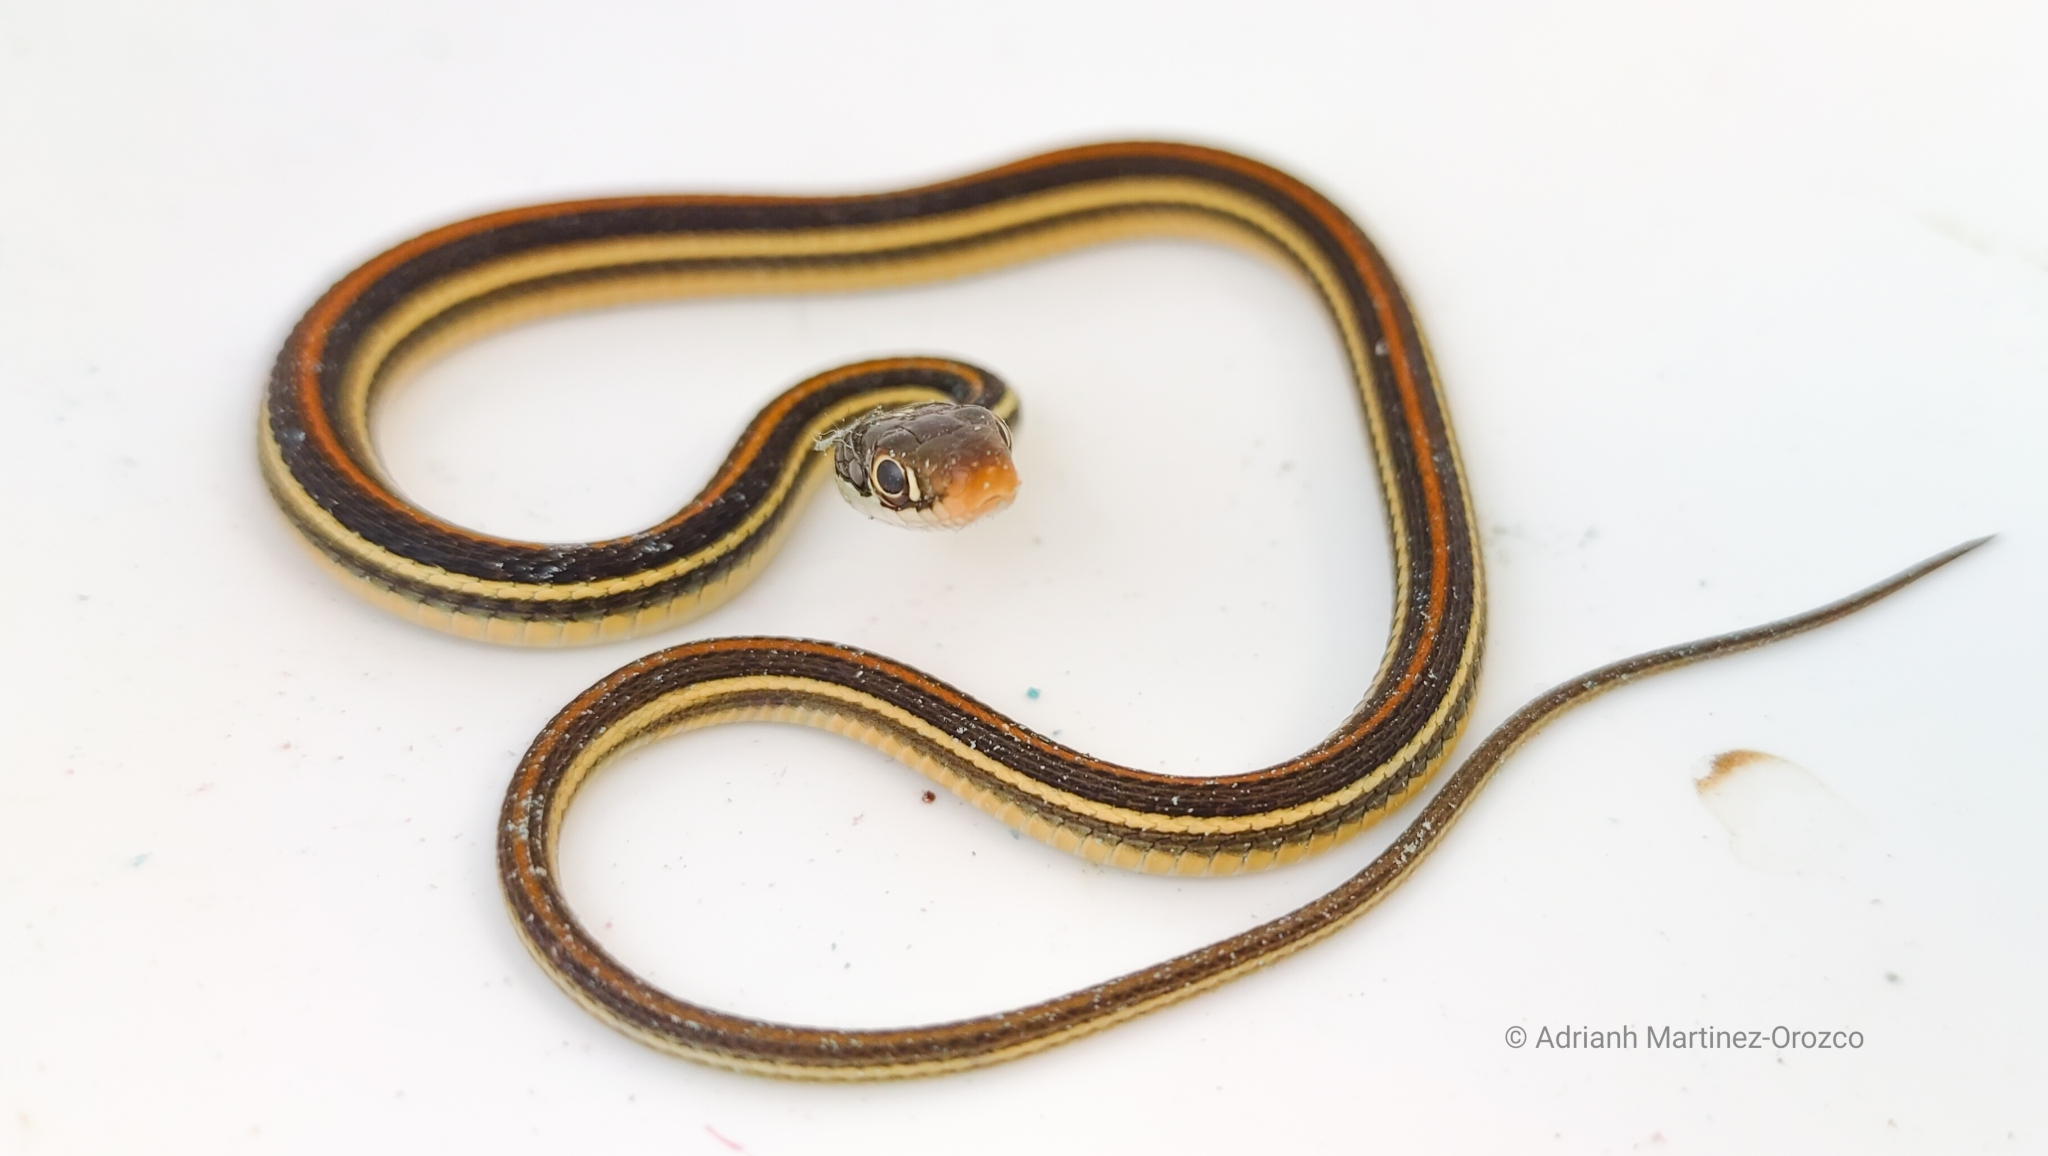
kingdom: Animalia
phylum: Chordata
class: Squamata
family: Colubridae
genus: Thamnophis
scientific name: Thamnophis proximus
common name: Western ribbon snake
